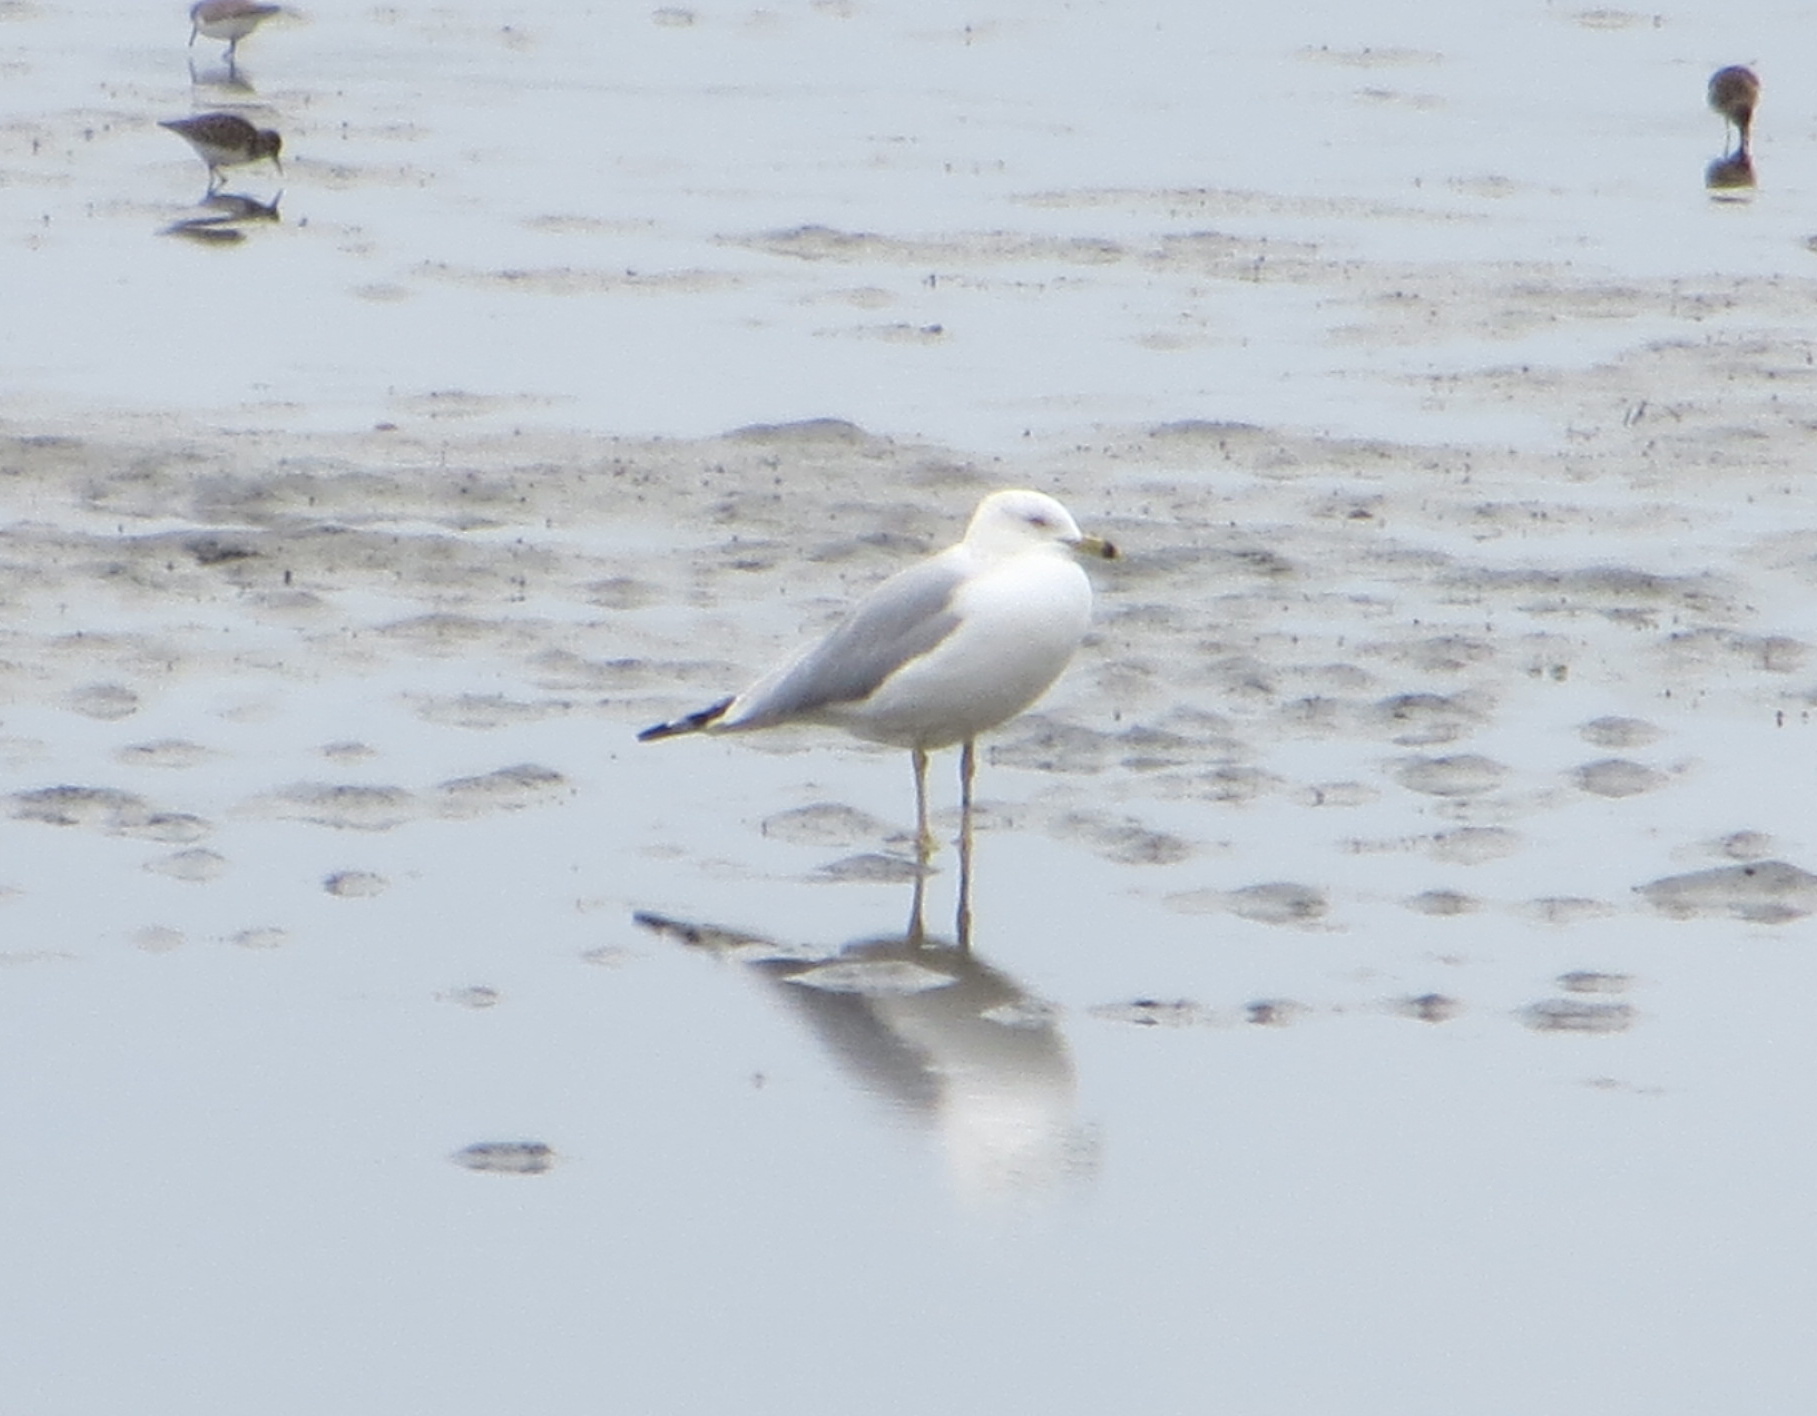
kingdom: Animalia
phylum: Chordata
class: Aves
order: Charadriiformes
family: Laridae
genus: Larus
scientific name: Larus delawarensis
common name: Ring-billed gull
